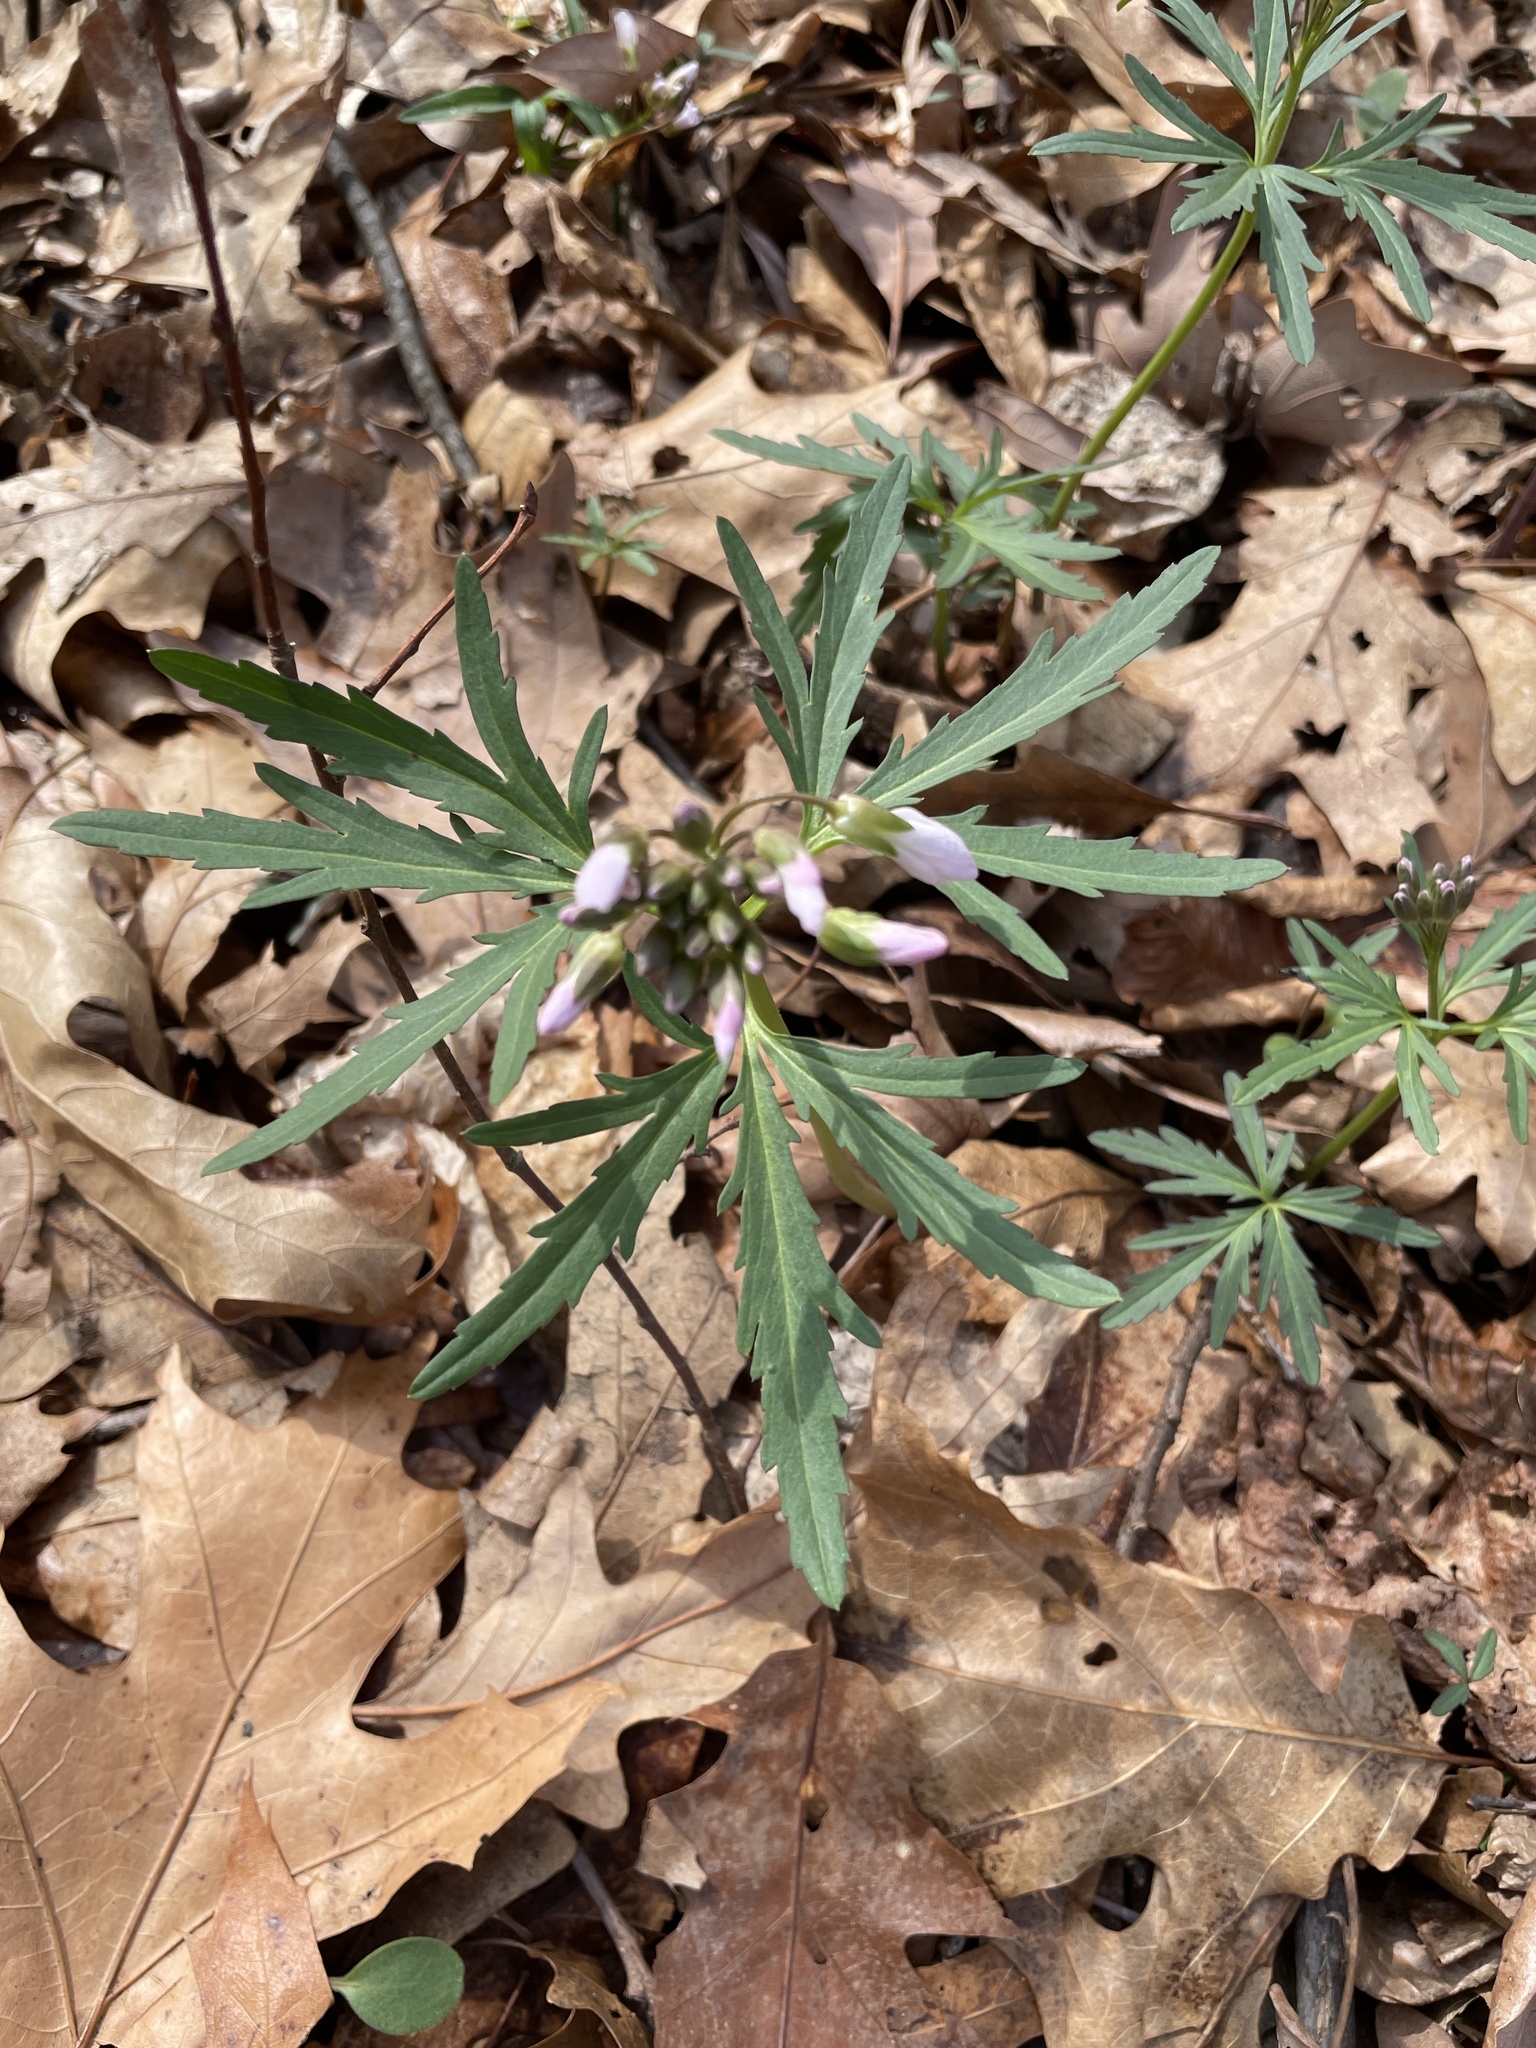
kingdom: Plantae
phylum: Tracheophyta
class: Magnoliopsida
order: Brassicales
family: Brassicaceae
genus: Cardamine
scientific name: Cardamine concatenata
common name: Cut-leaf toothcup
